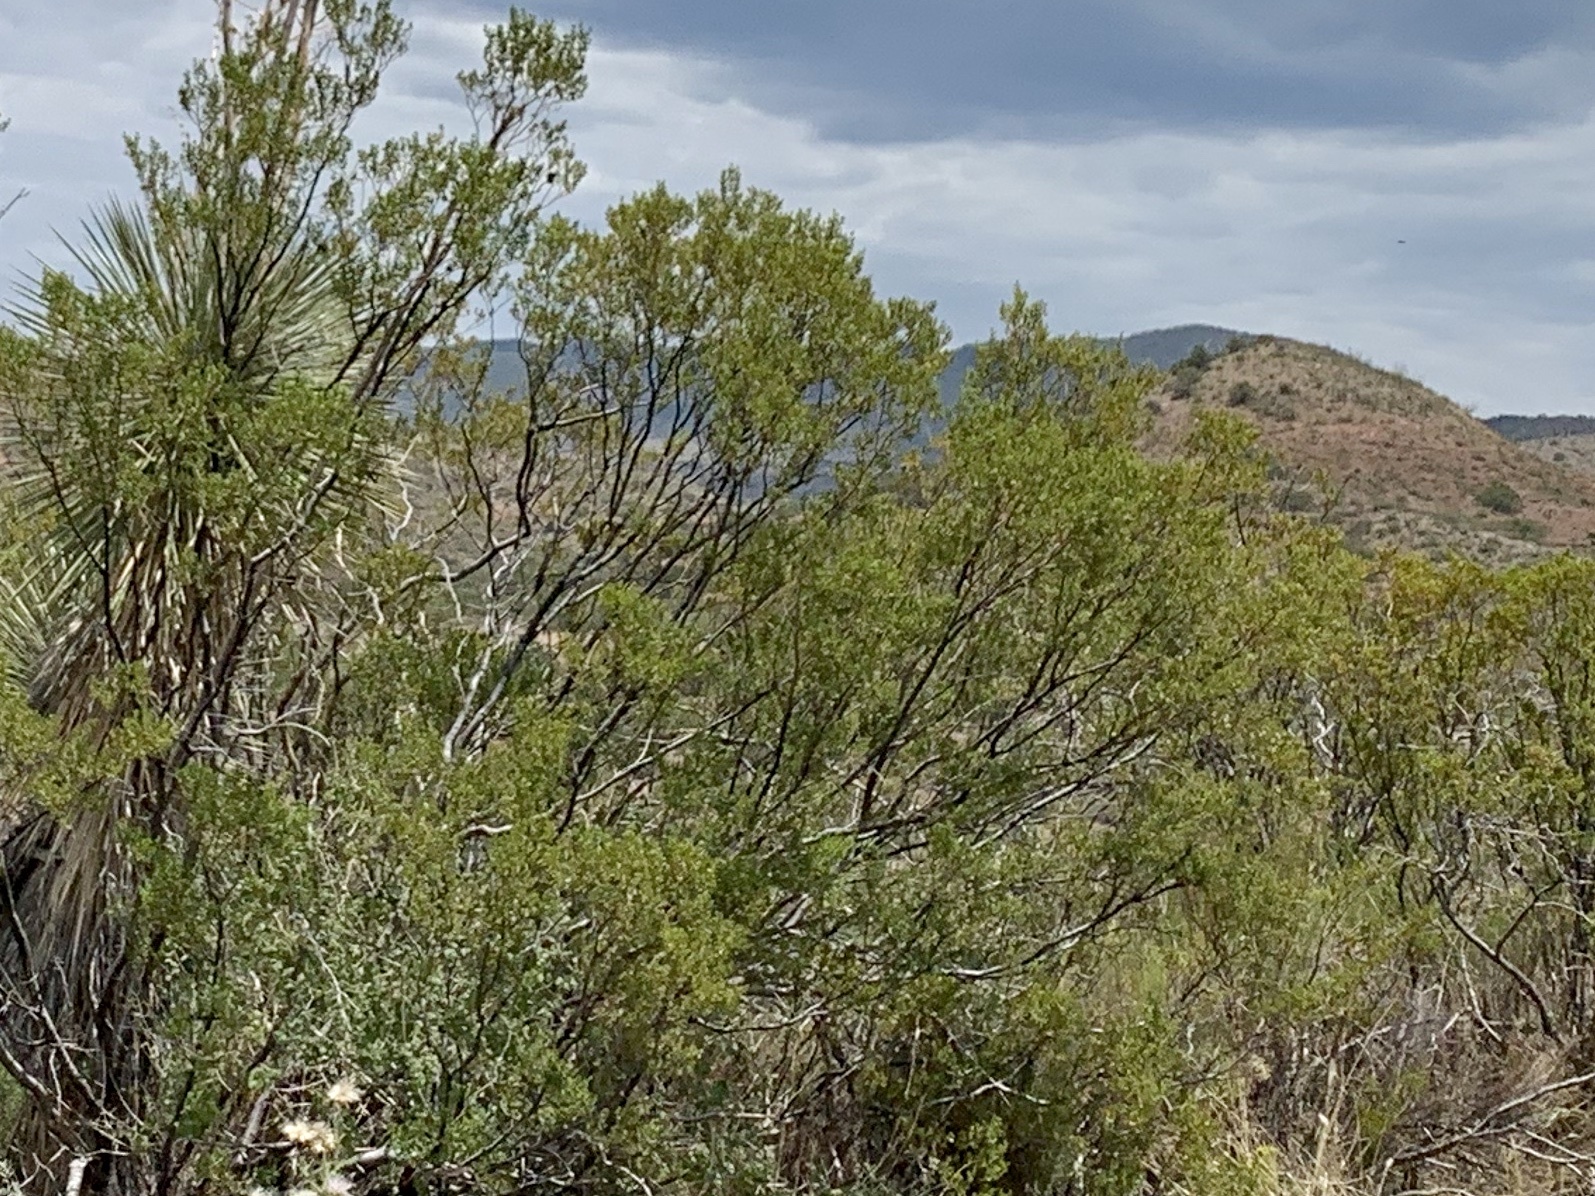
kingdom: Plantae
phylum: Tracheophyta
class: Magnoliopsida
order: Zygophyllales
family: Zygophyllaceae
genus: Larrea
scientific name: Larrea tridentata
